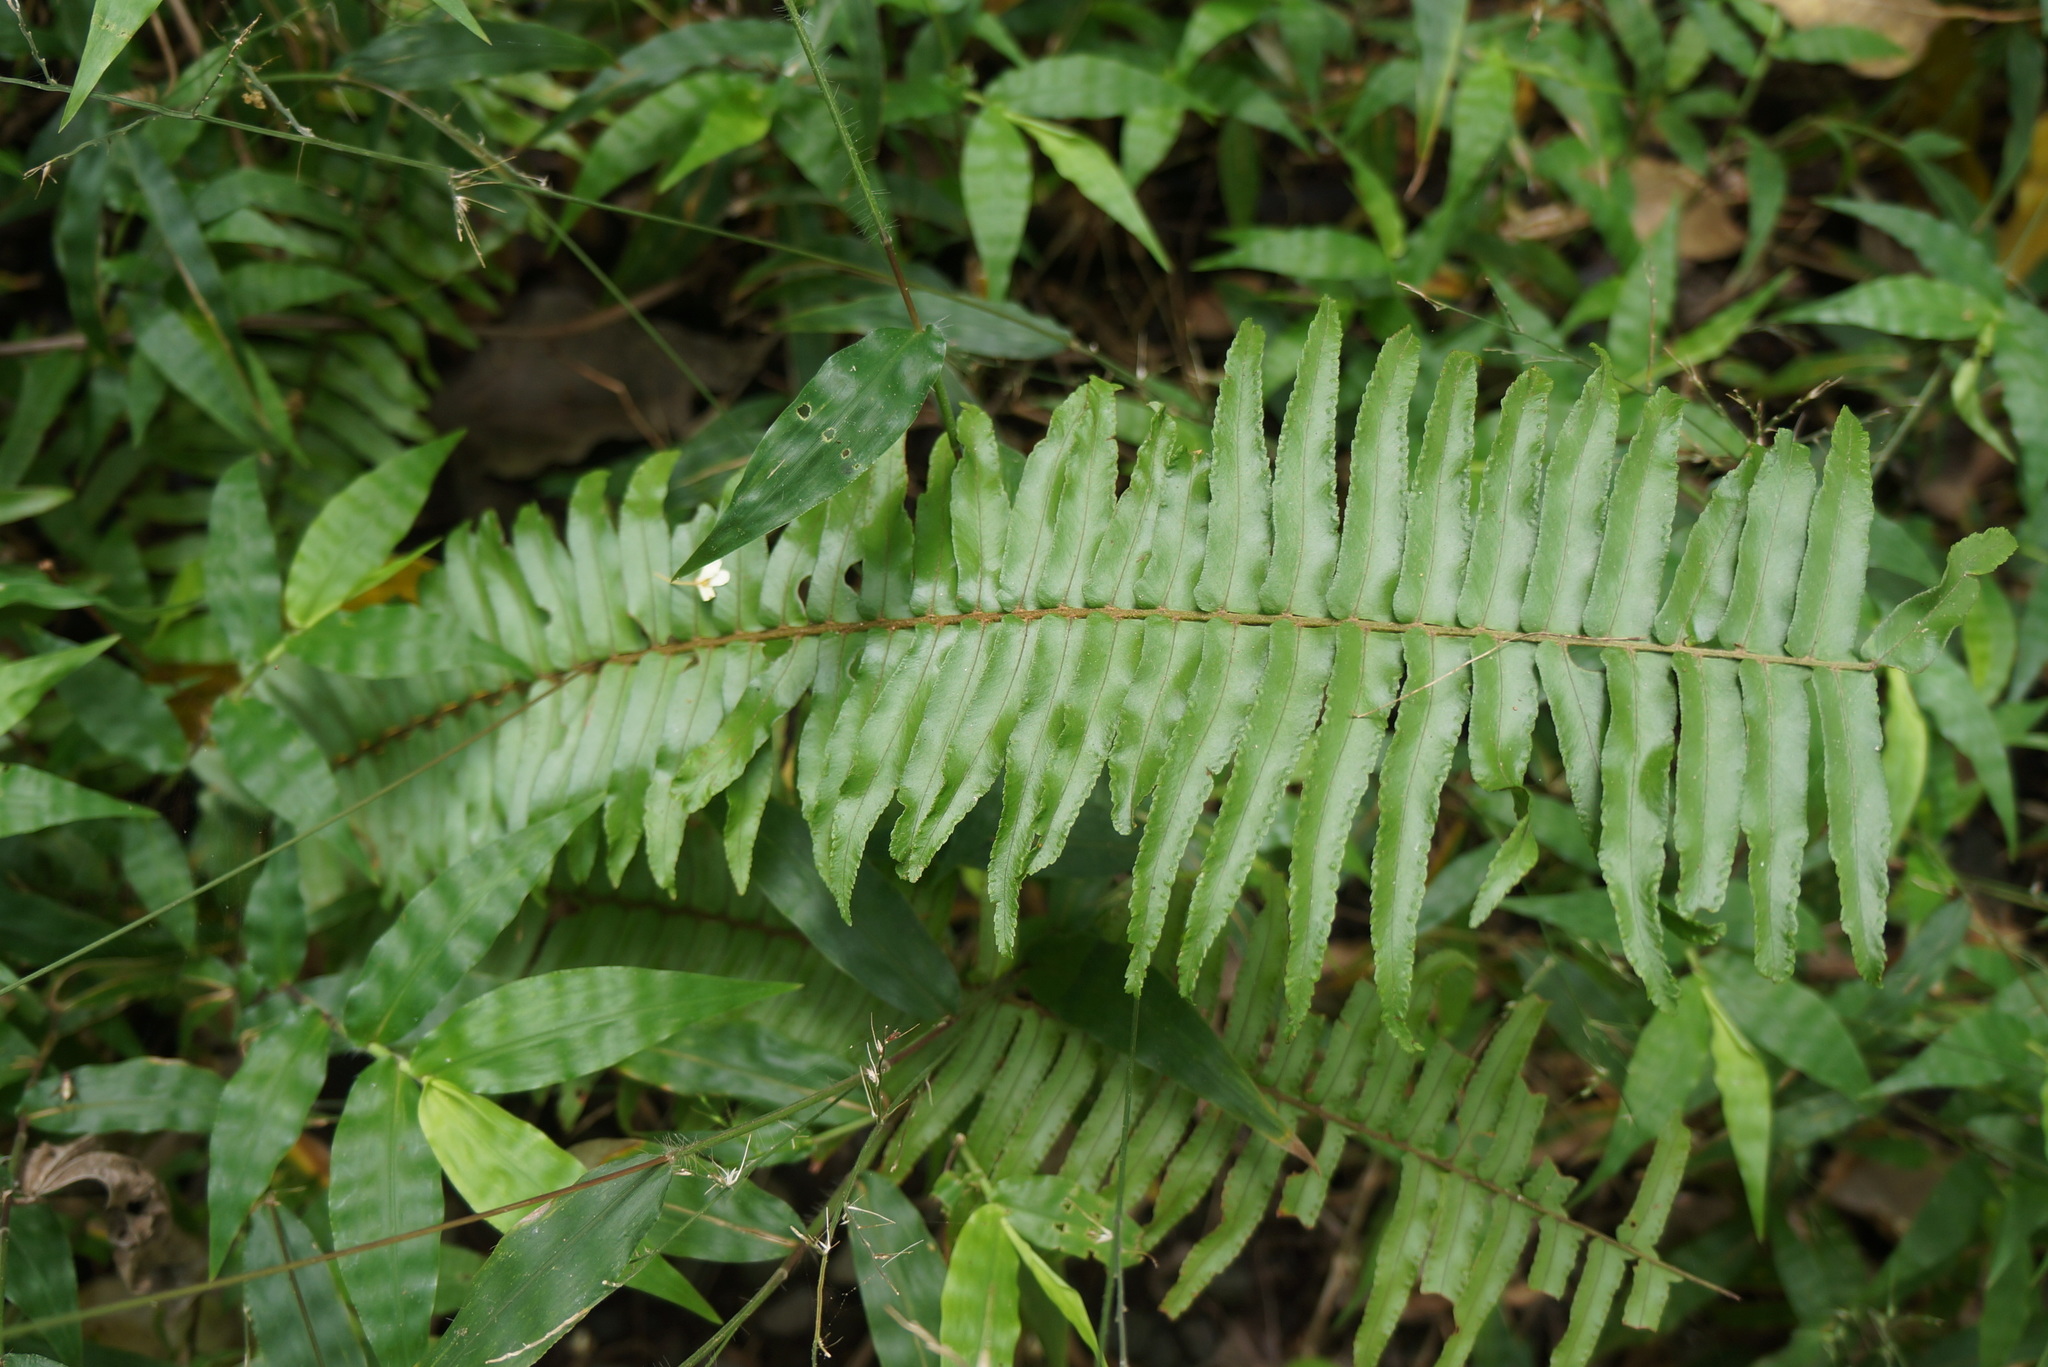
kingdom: Plantae
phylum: Tracheophyta
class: Polypodiopsida
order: Polypodiales
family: Nephrolepidaceae
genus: Nephrolepis
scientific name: Nephrolepis brownii
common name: Asian swordfern
